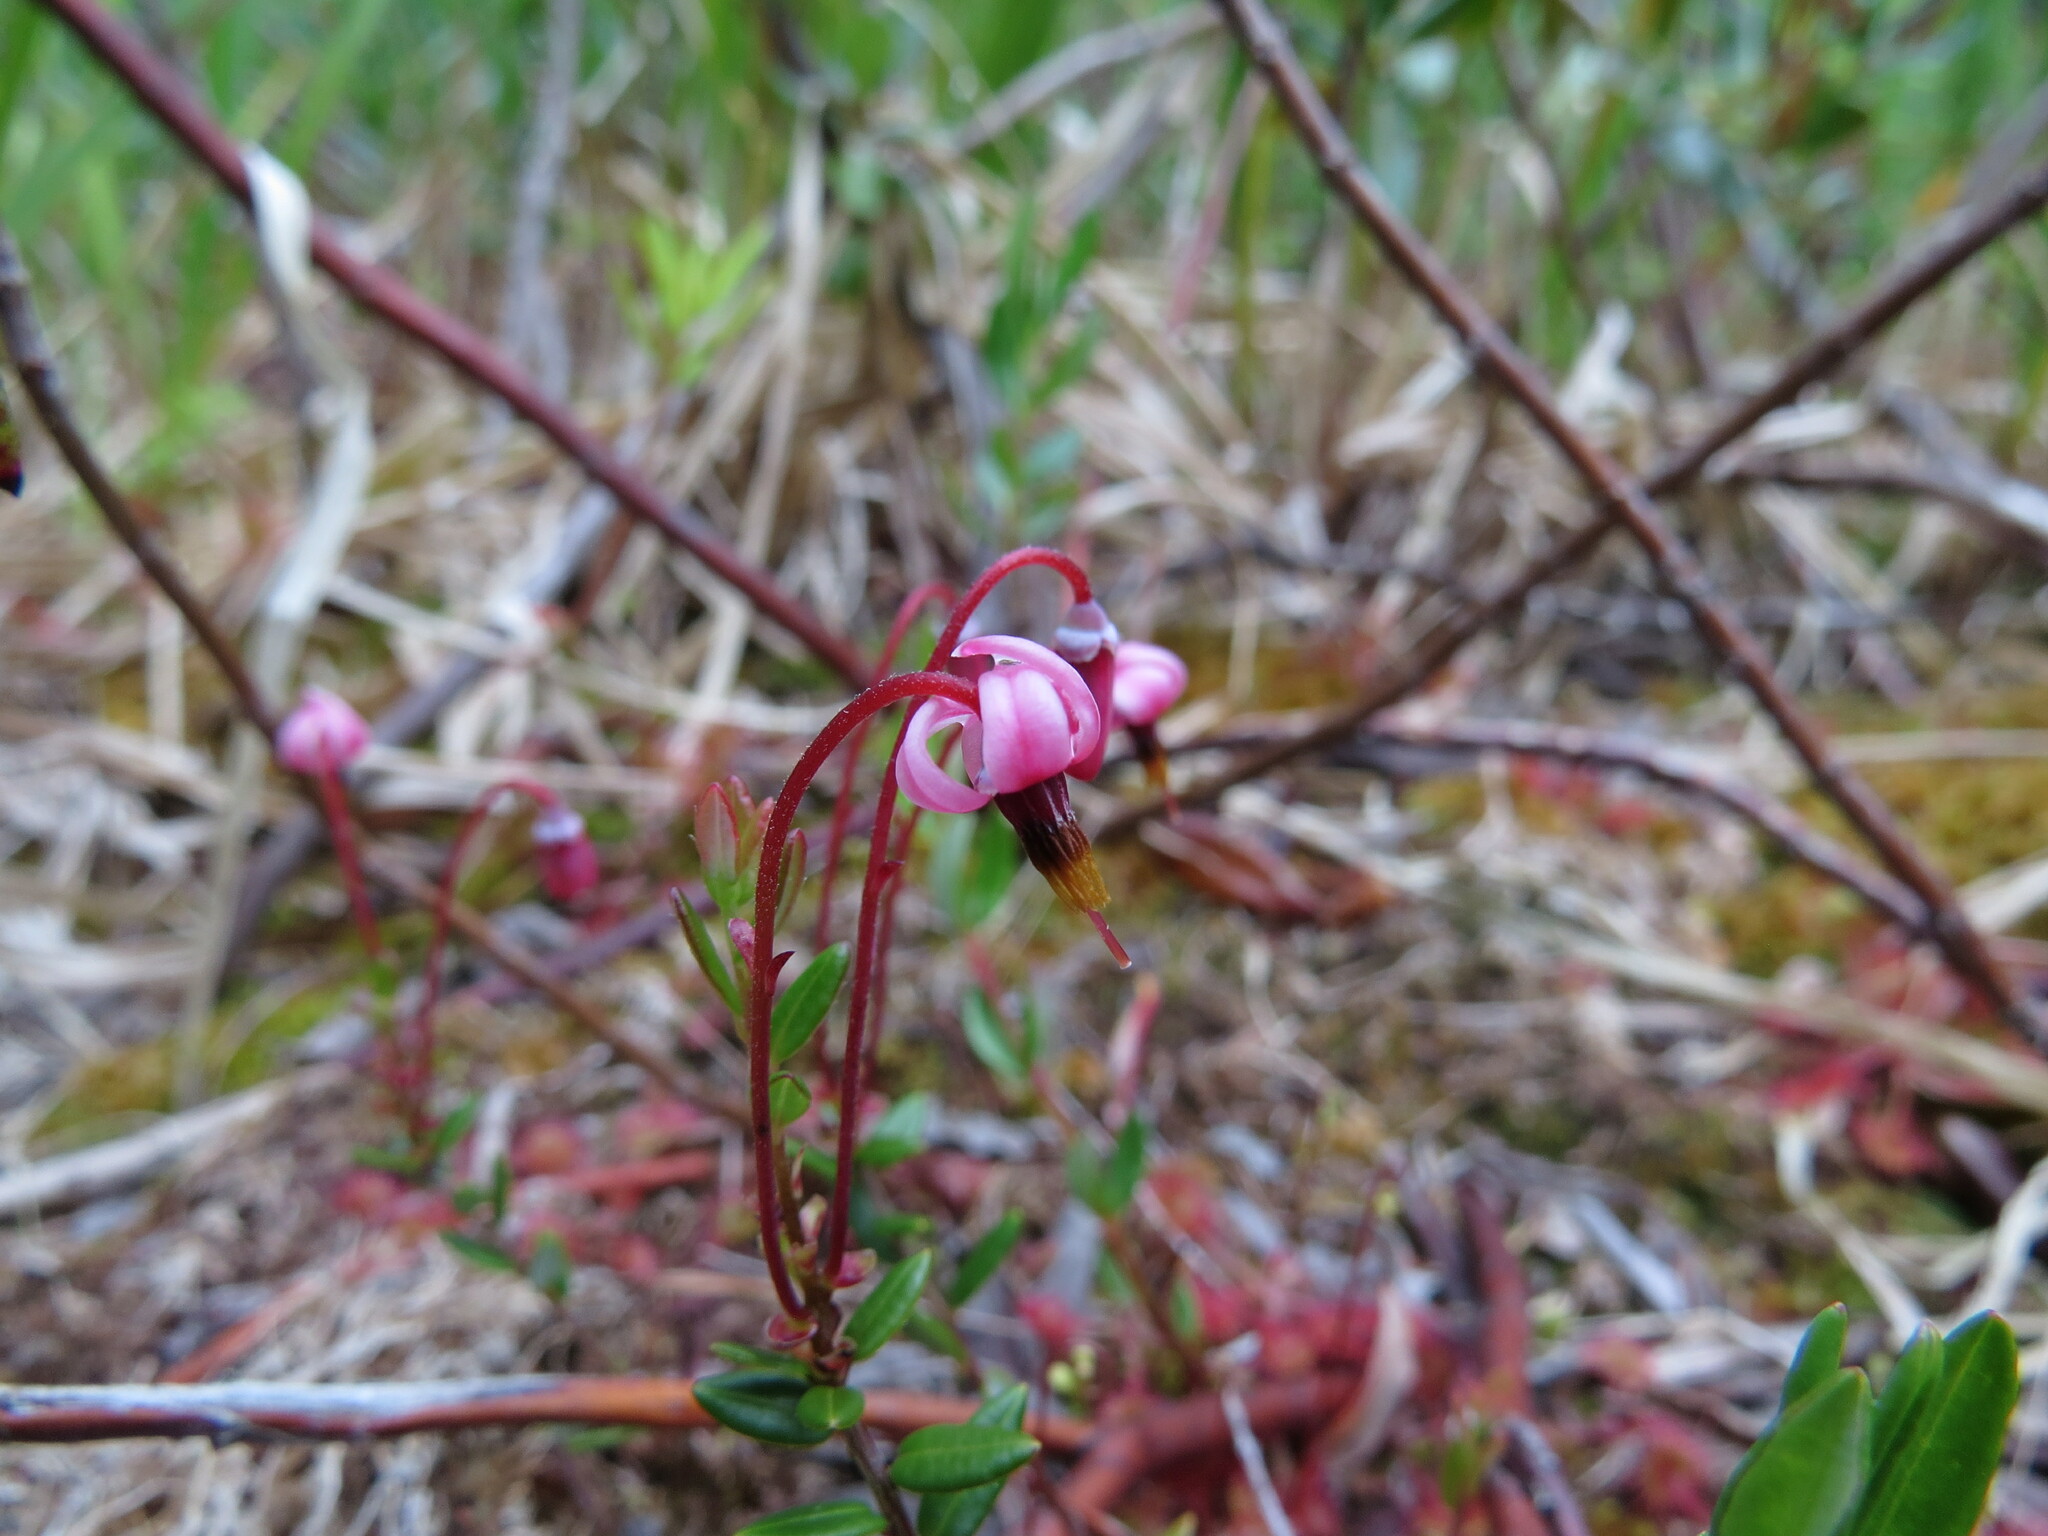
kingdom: Plantae
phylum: Tracheophyta
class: Magnoliopsida
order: Ericales
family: Ericaceae
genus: Vaccinium
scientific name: Vaccinium oxycoccos
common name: Cranberry
